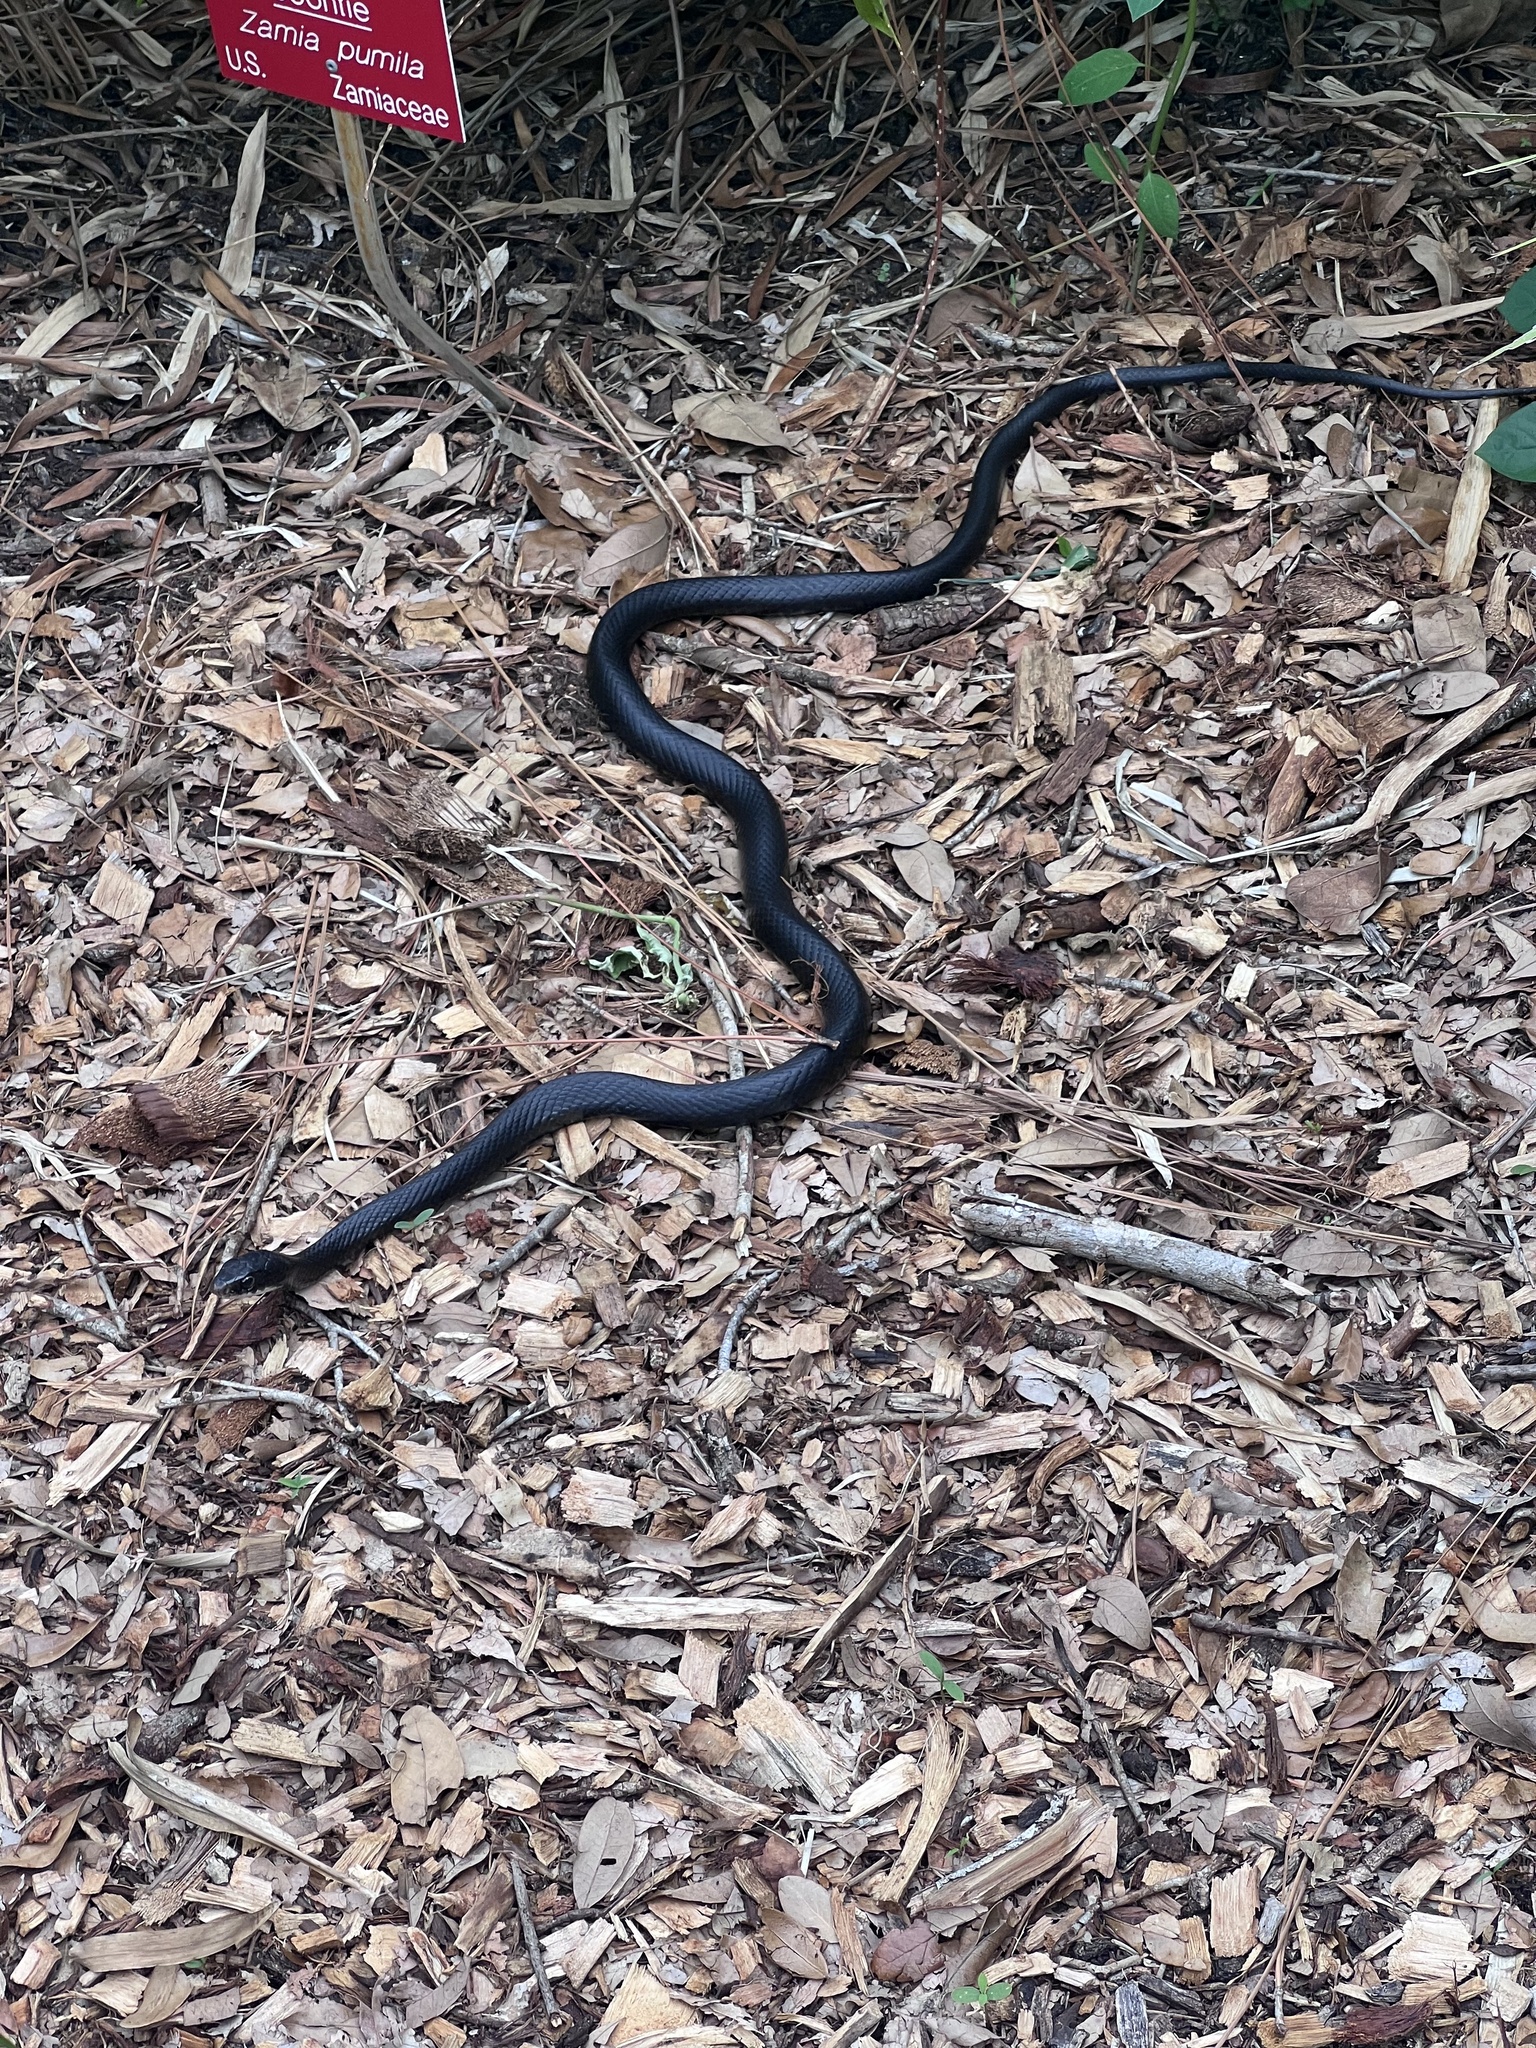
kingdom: Animalia
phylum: Chordata
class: Squamata
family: Colubridae
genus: Coluber
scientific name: Coluber constrictor
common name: Eastern racer
